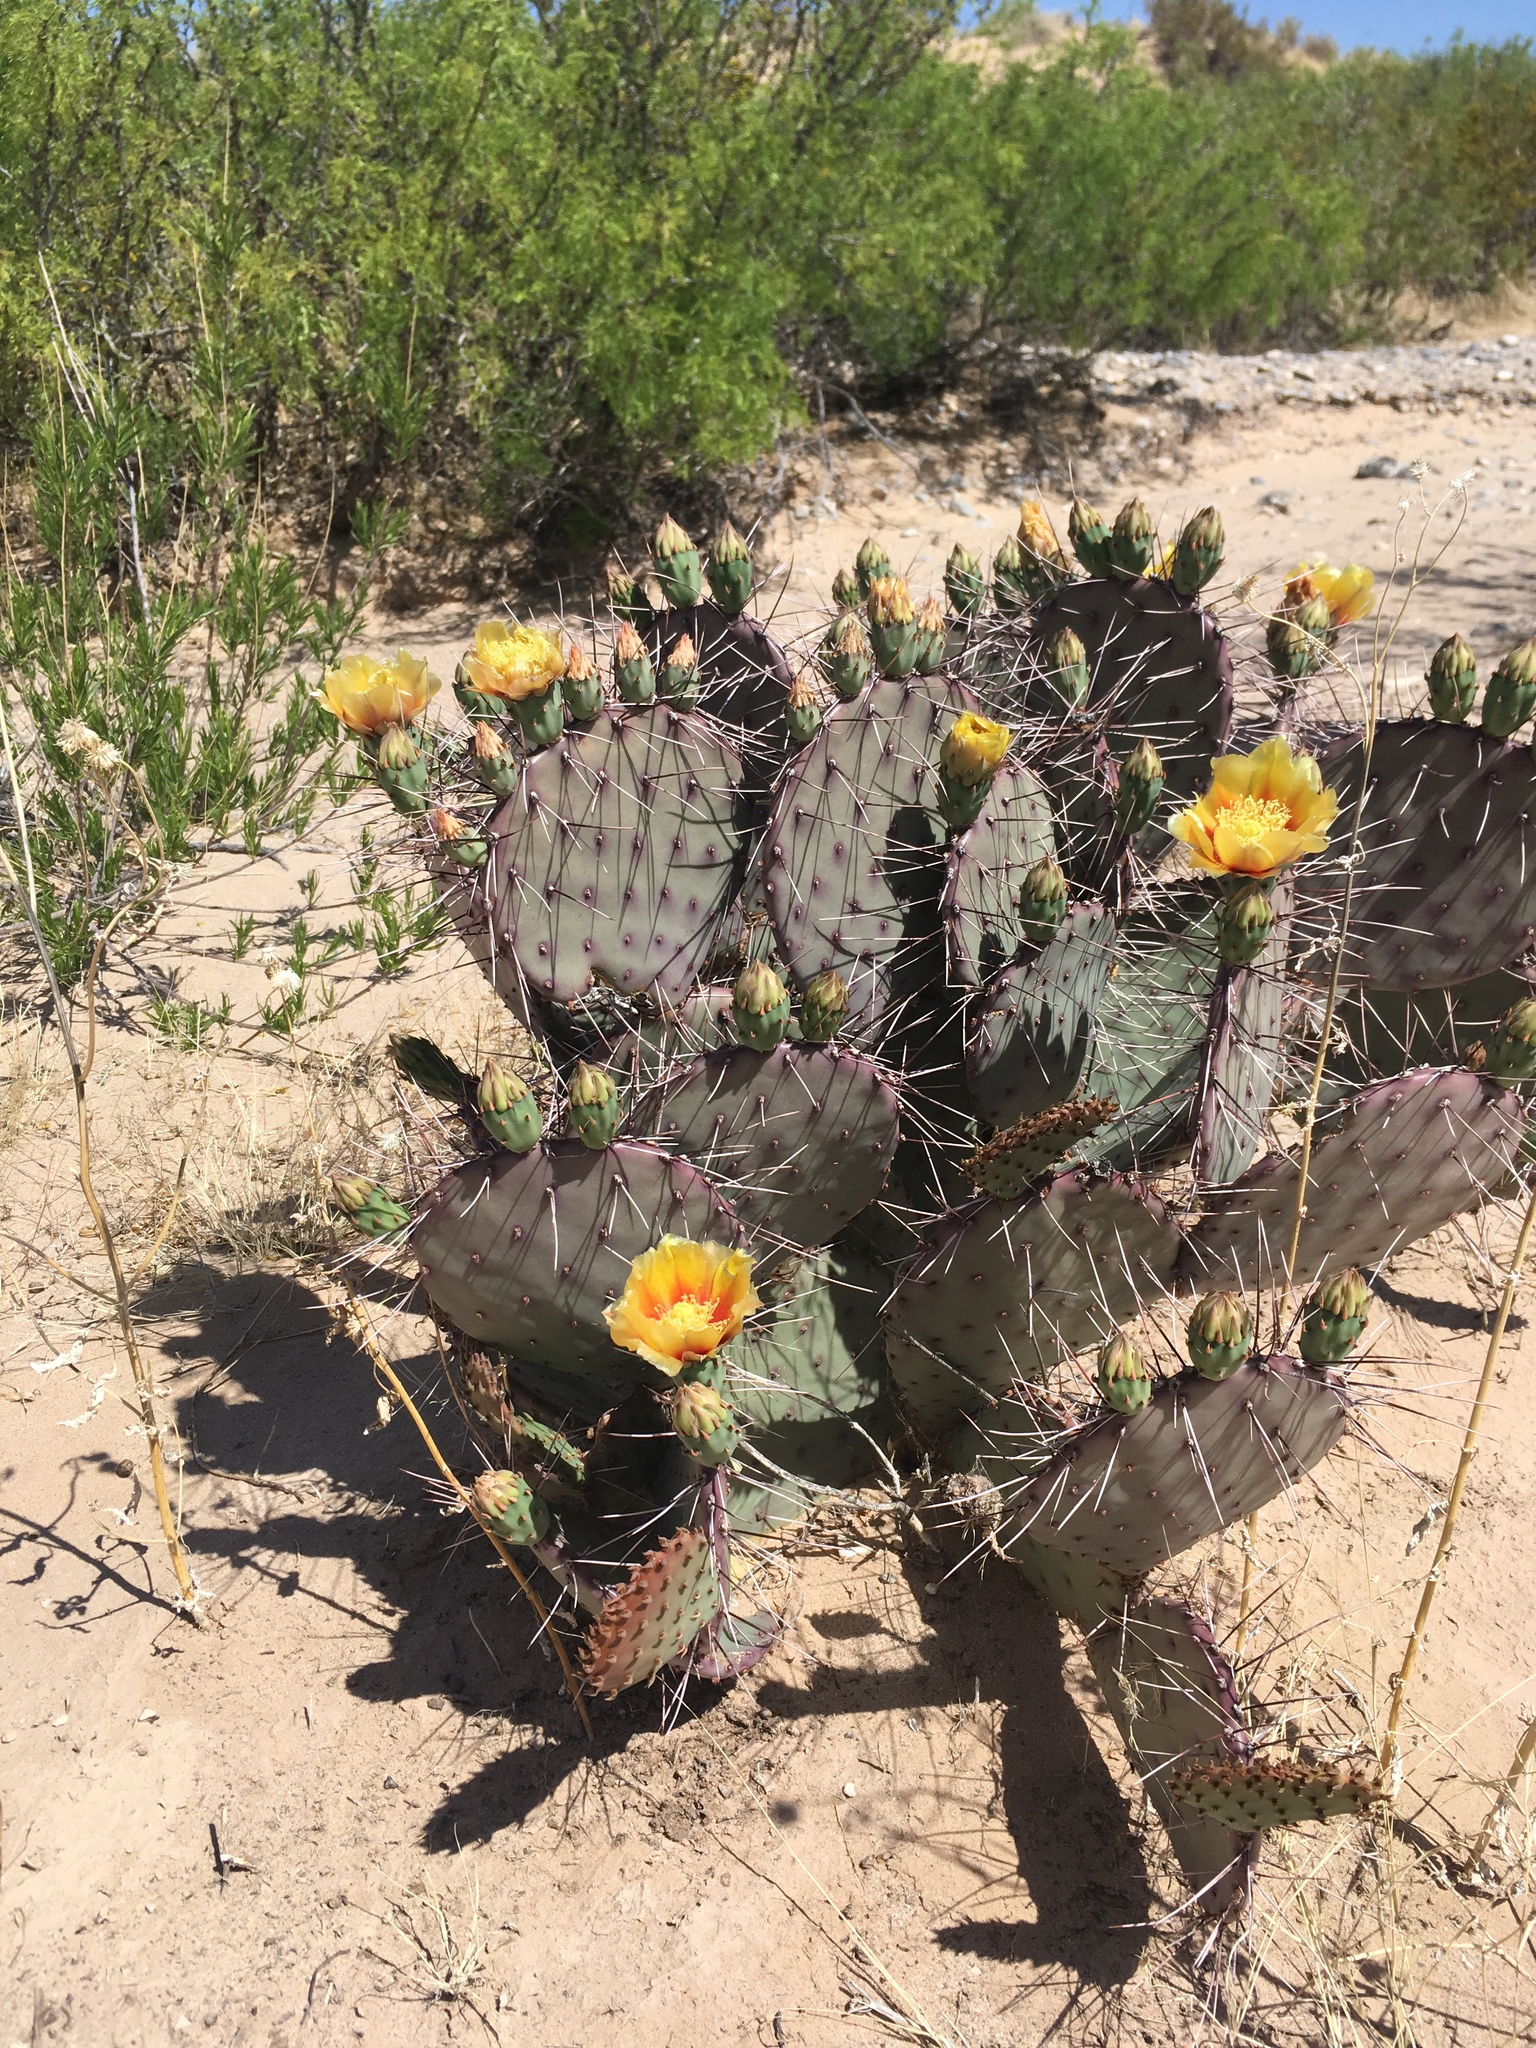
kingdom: Plantae
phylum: Tracheophyta
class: Magnoliopsida
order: Caryophyllales
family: Cactaceae
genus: Opuntia
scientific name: Opuntia macrocentra
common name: Purple prickly-pear
